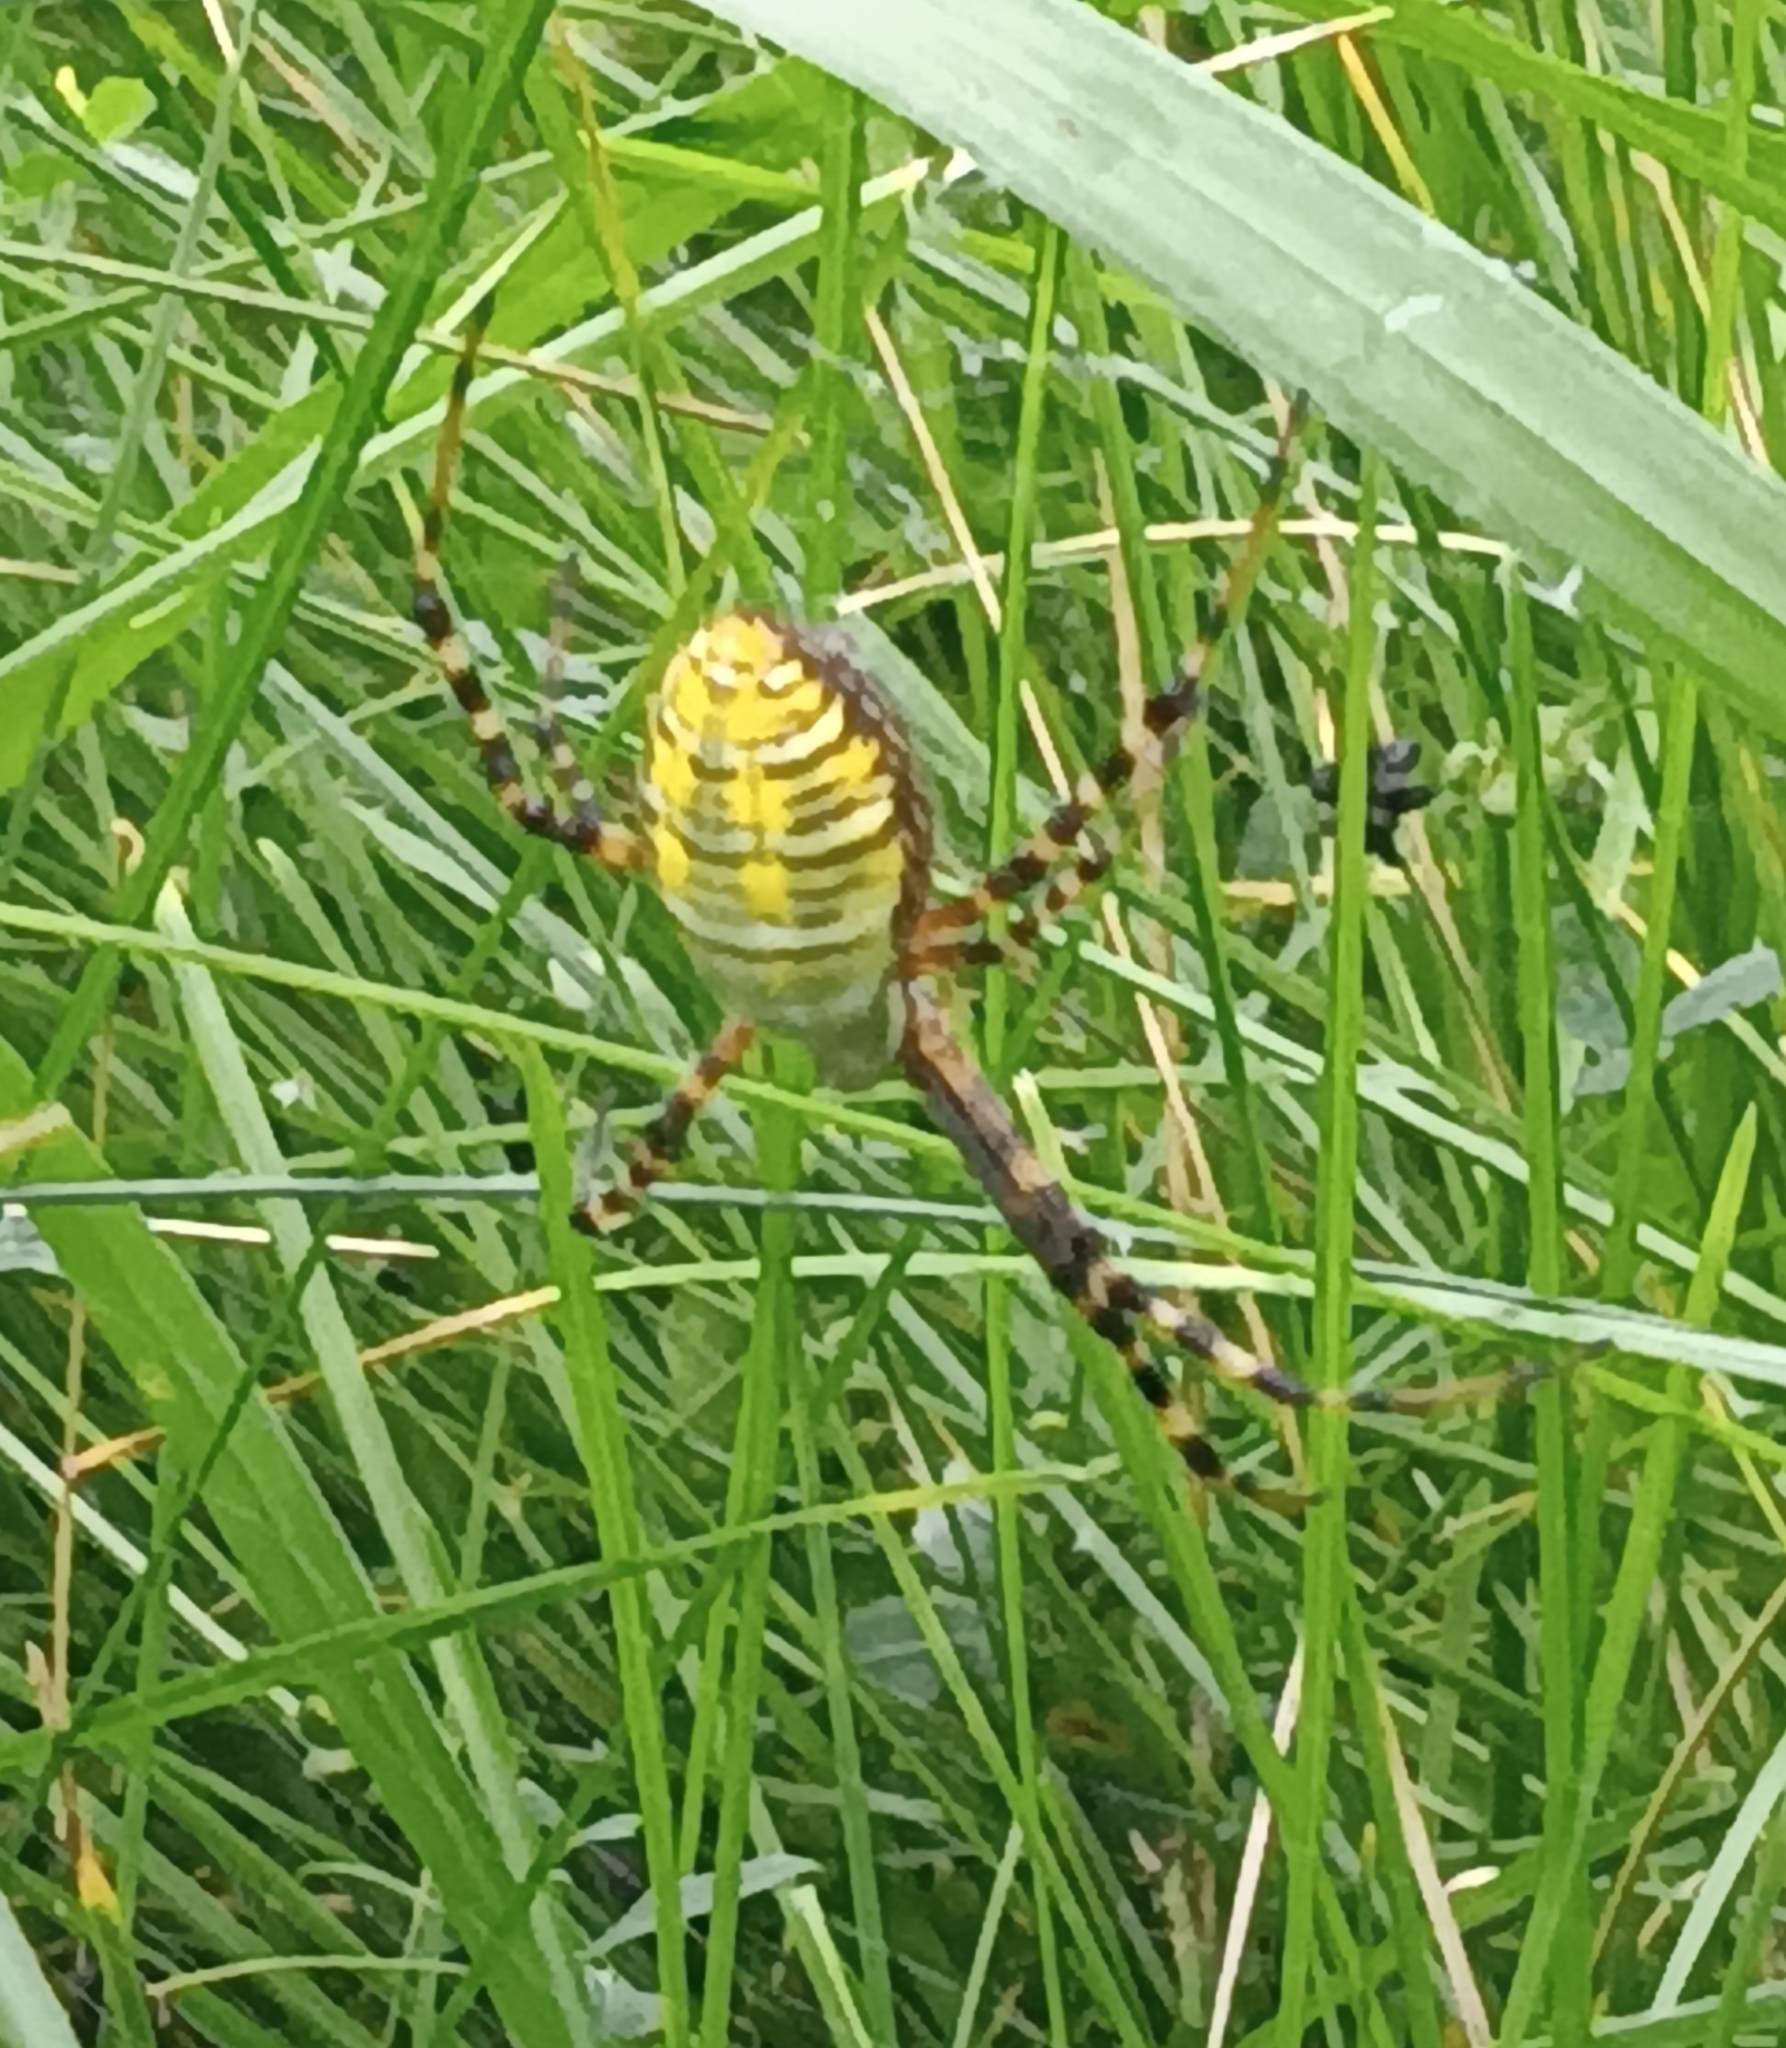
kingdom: Animalia
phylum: Arthropoda
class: Arachnida
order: Araneae
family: Araneidae
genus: Argiope
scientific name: Argiope trifasciata
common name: Banded garden spider
